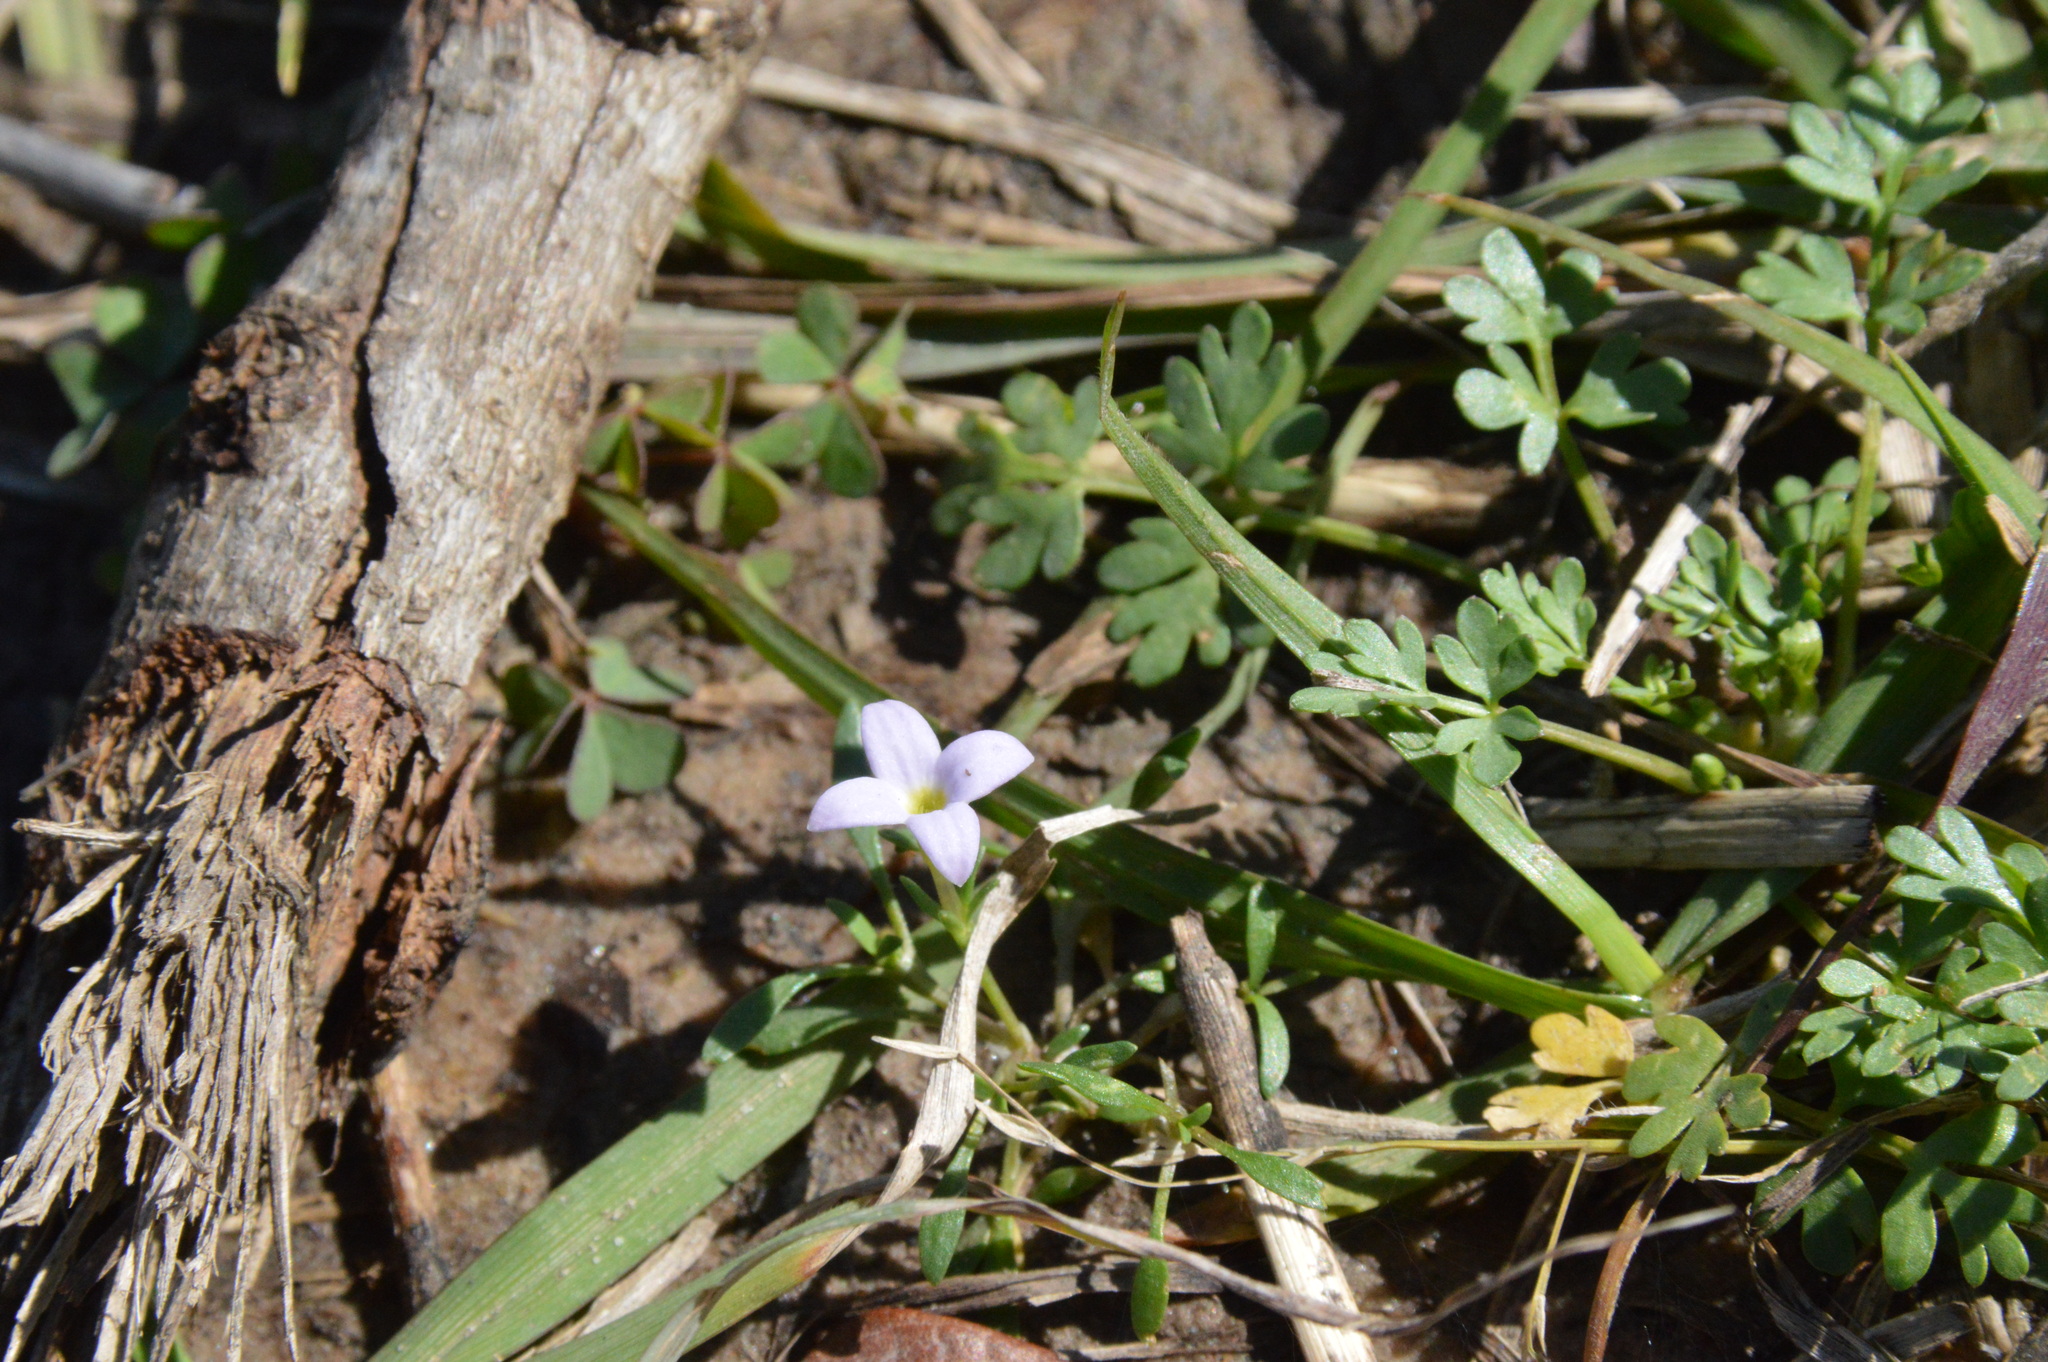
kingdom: Plantae
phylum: Tracheophyta
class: Magnoliopsida
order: Gentianales
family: Rubiaceae
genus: Houstonia
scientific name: Houstonia rosea
